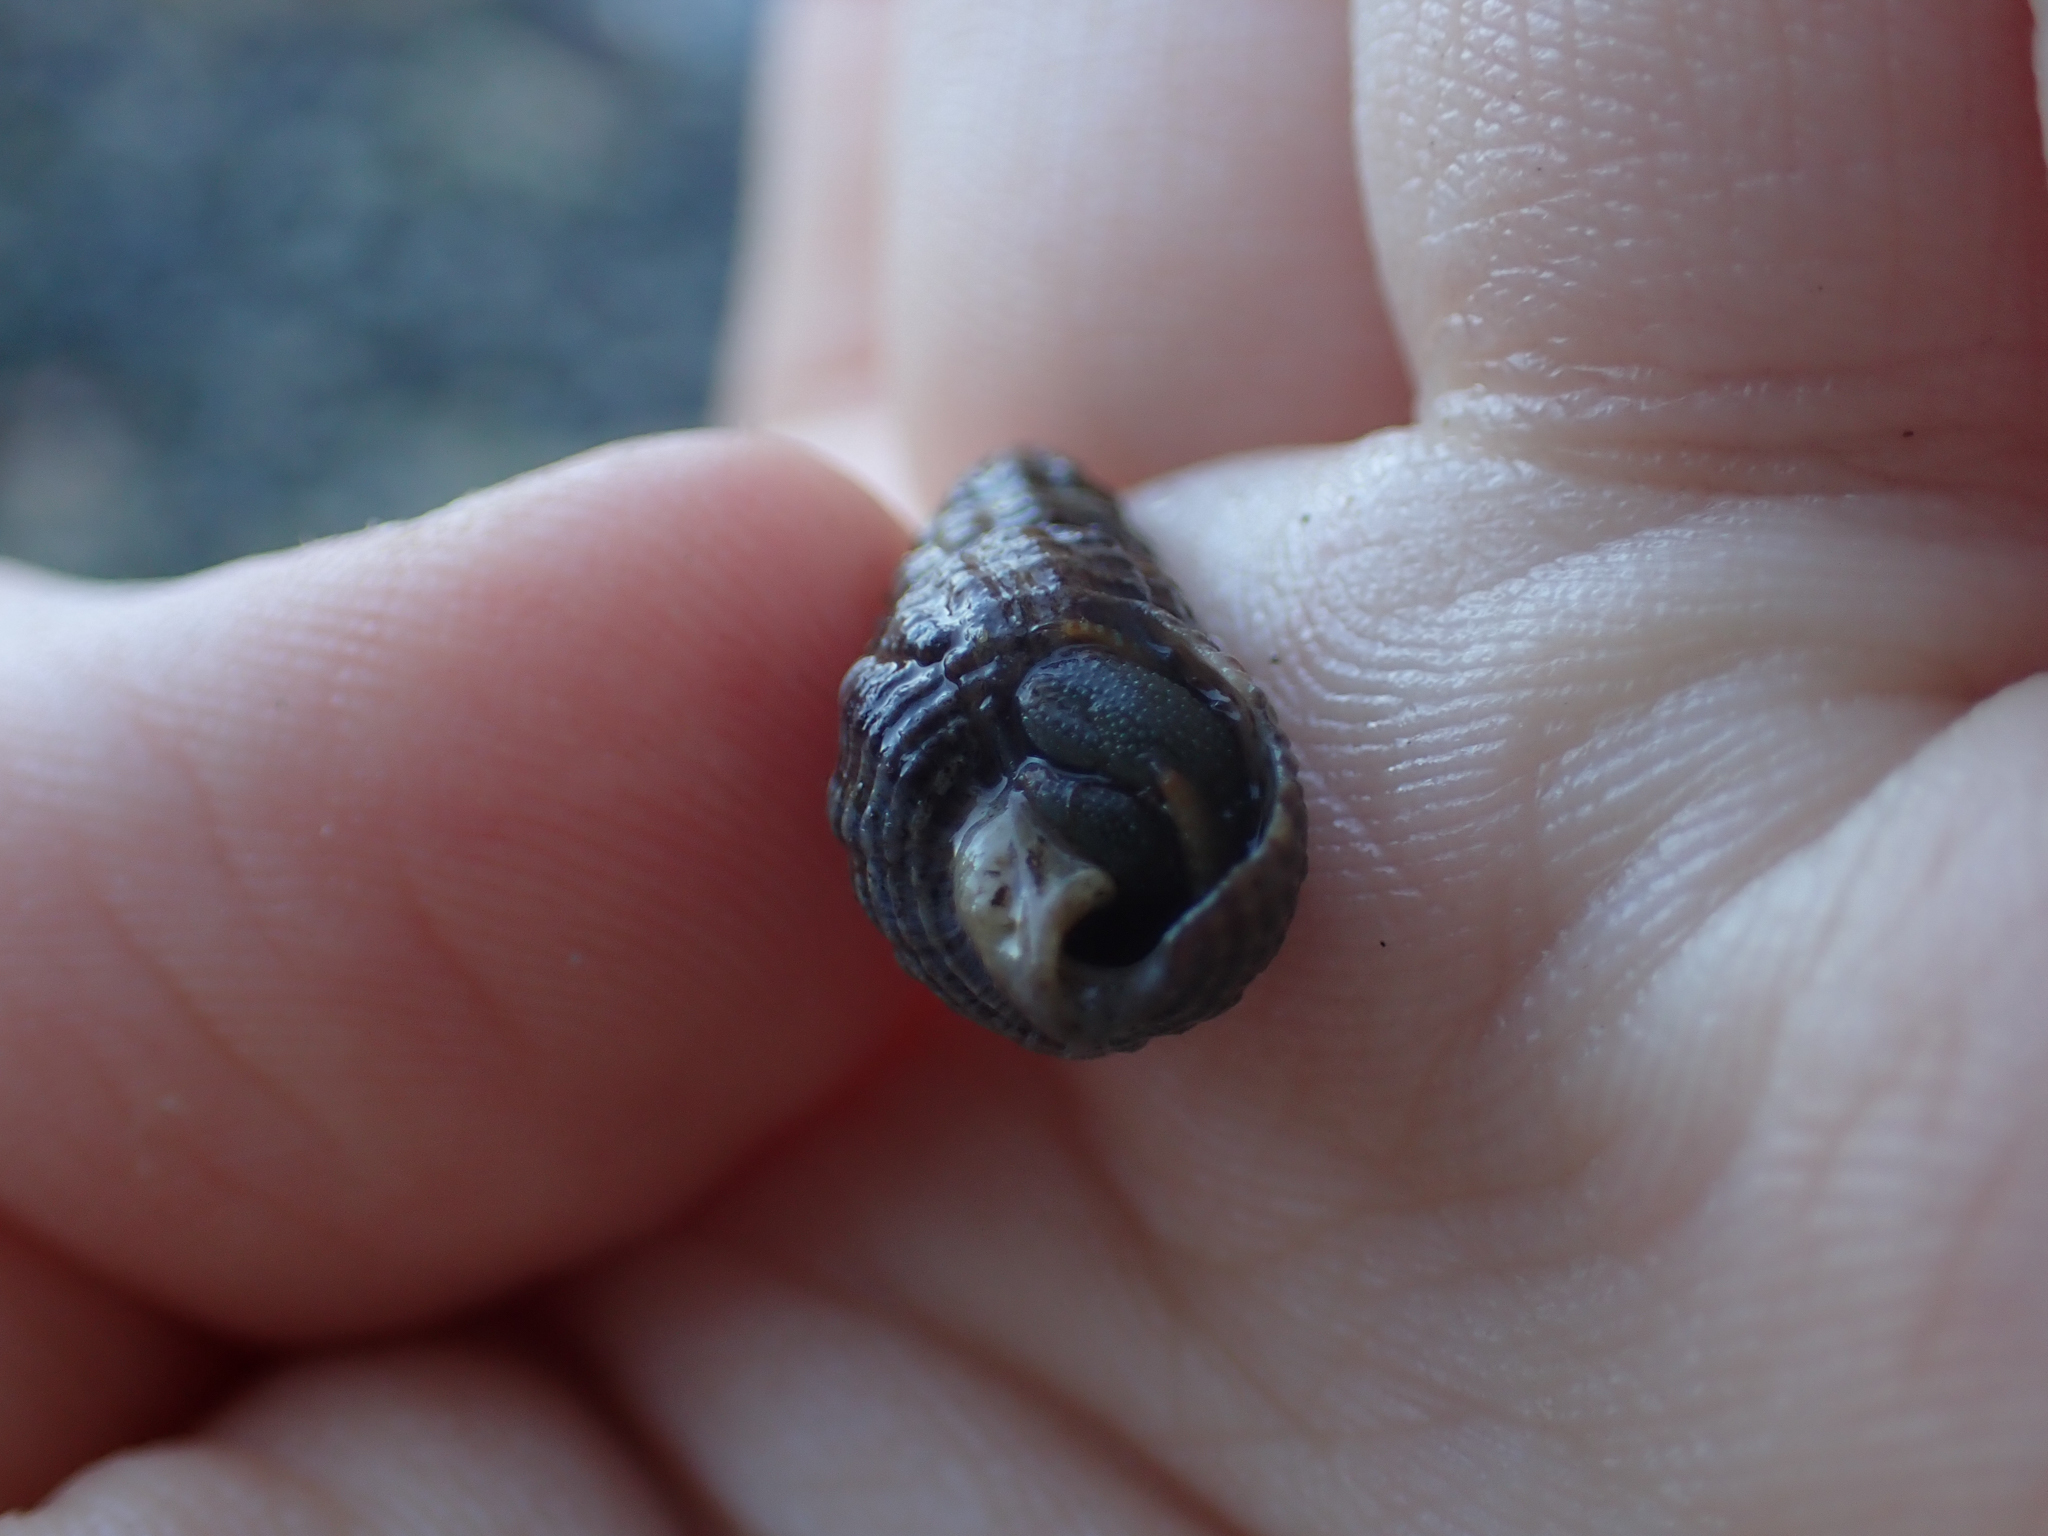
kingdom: Animalia
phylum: Arthropoda
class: Malacostraca
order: Decapoda
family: Paguridae
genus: Pagurus
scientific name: Pagurus granosimanus
